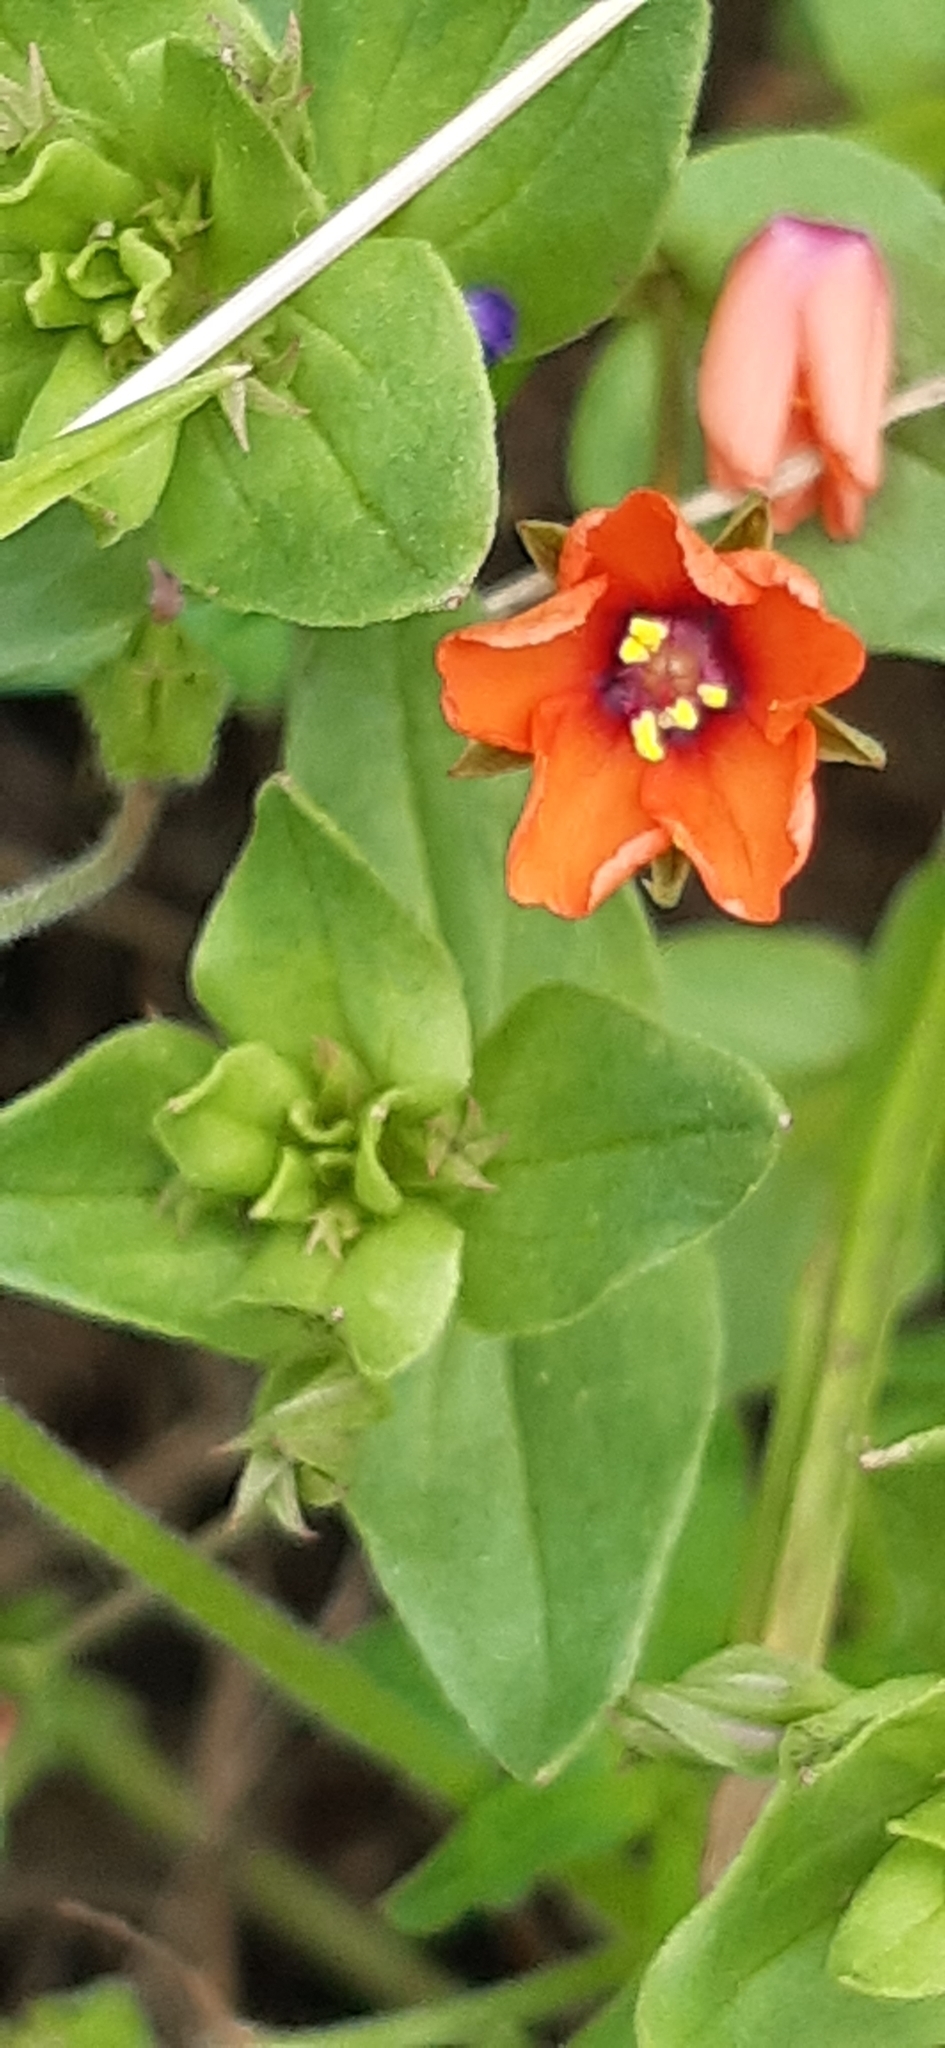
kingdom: Plantae
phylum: Tracheophyta
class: Magnoliopsida
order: Ericales
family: Primulaceae
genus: Lysimachia
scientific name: Lysimachia arvensis
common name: Scarlet pimpernel
